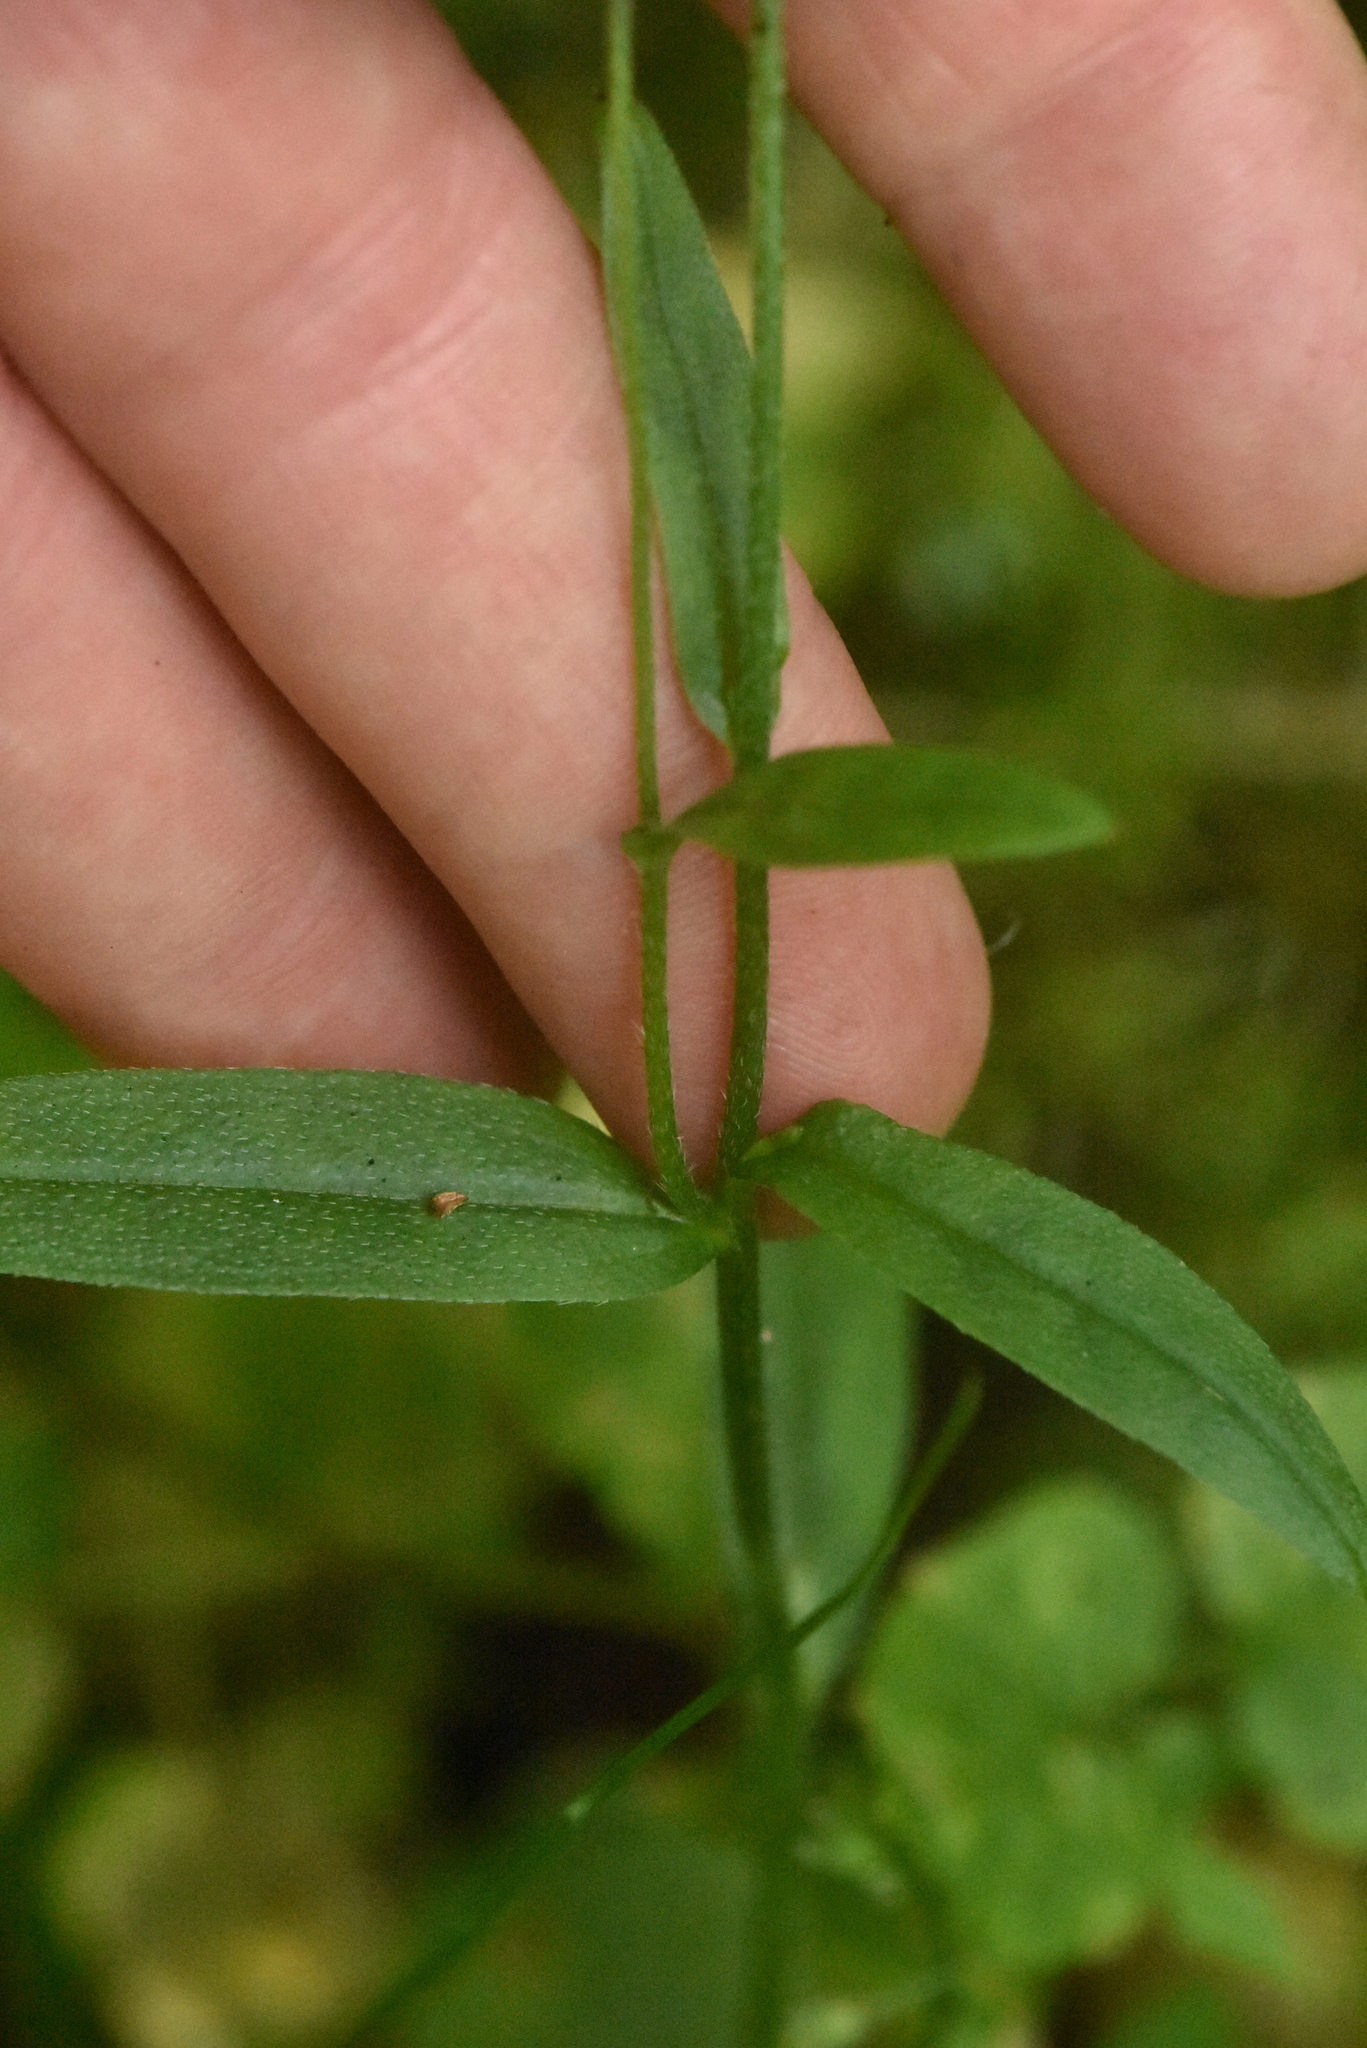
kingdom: Plantae
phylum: Tracheophyta
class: Magnoliopsida
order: Boraginales
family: Boraginaceae
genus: Myosotis
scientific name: Myosotis scorpioides
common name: Water forget-me-not
